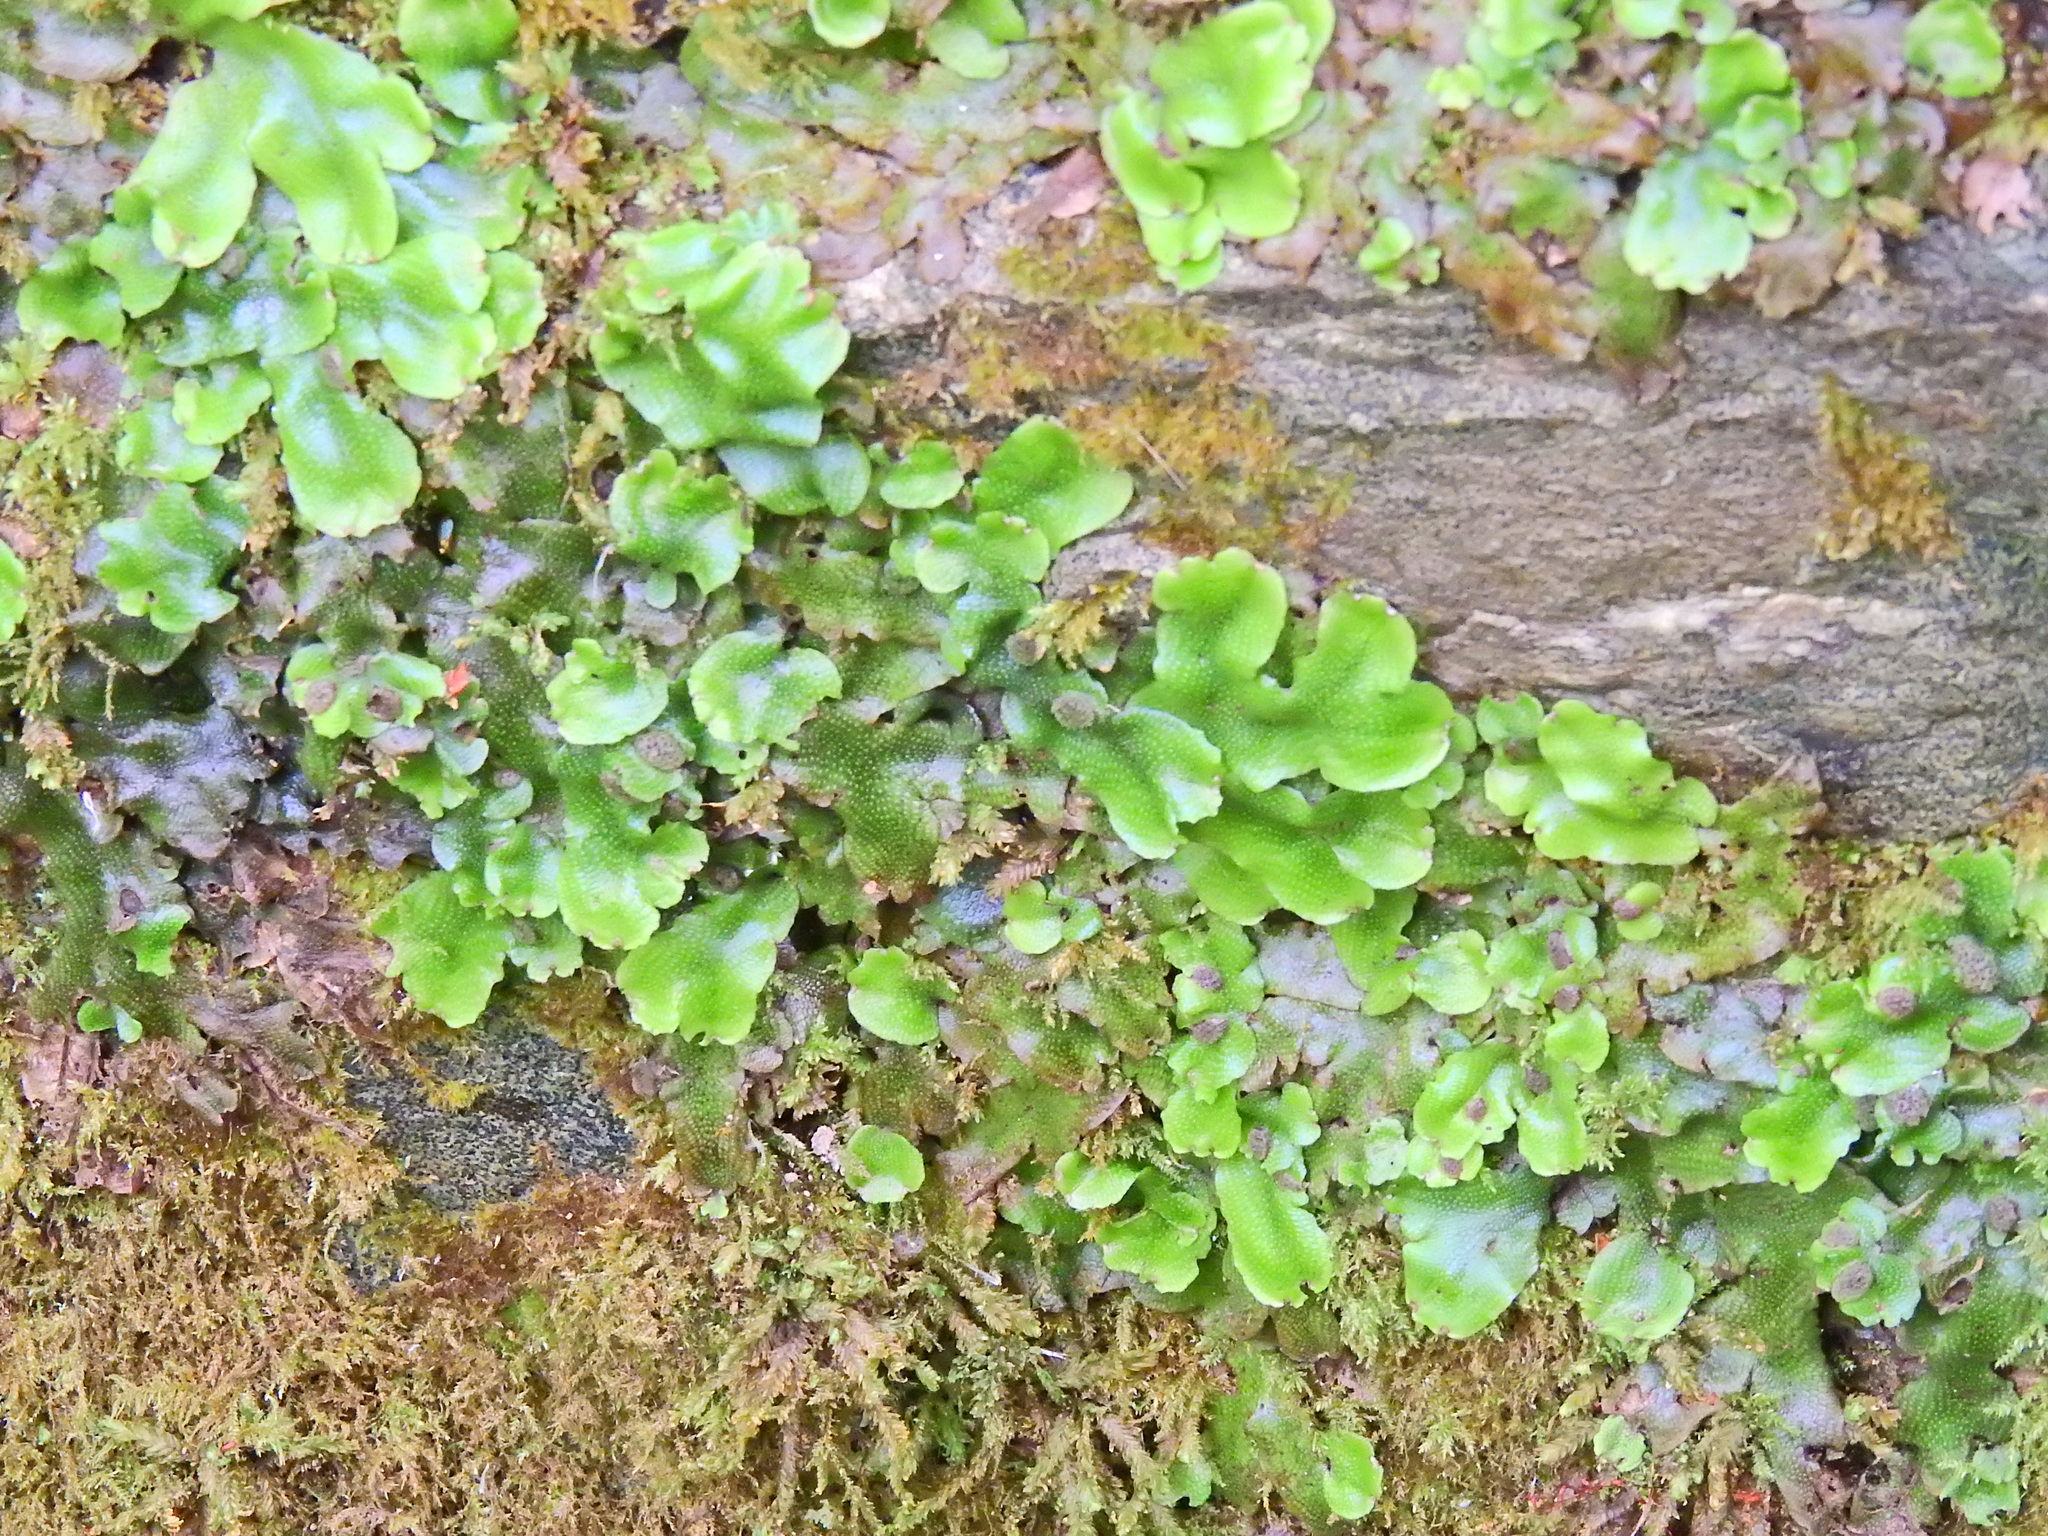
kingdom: Plantae
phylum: Marchantiophyta
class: Marchantiopsida
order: Marchantiales
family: Conocephalaceae
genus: Conocephalum
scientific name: Conocephalum conicum
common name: Great scented liverwort
